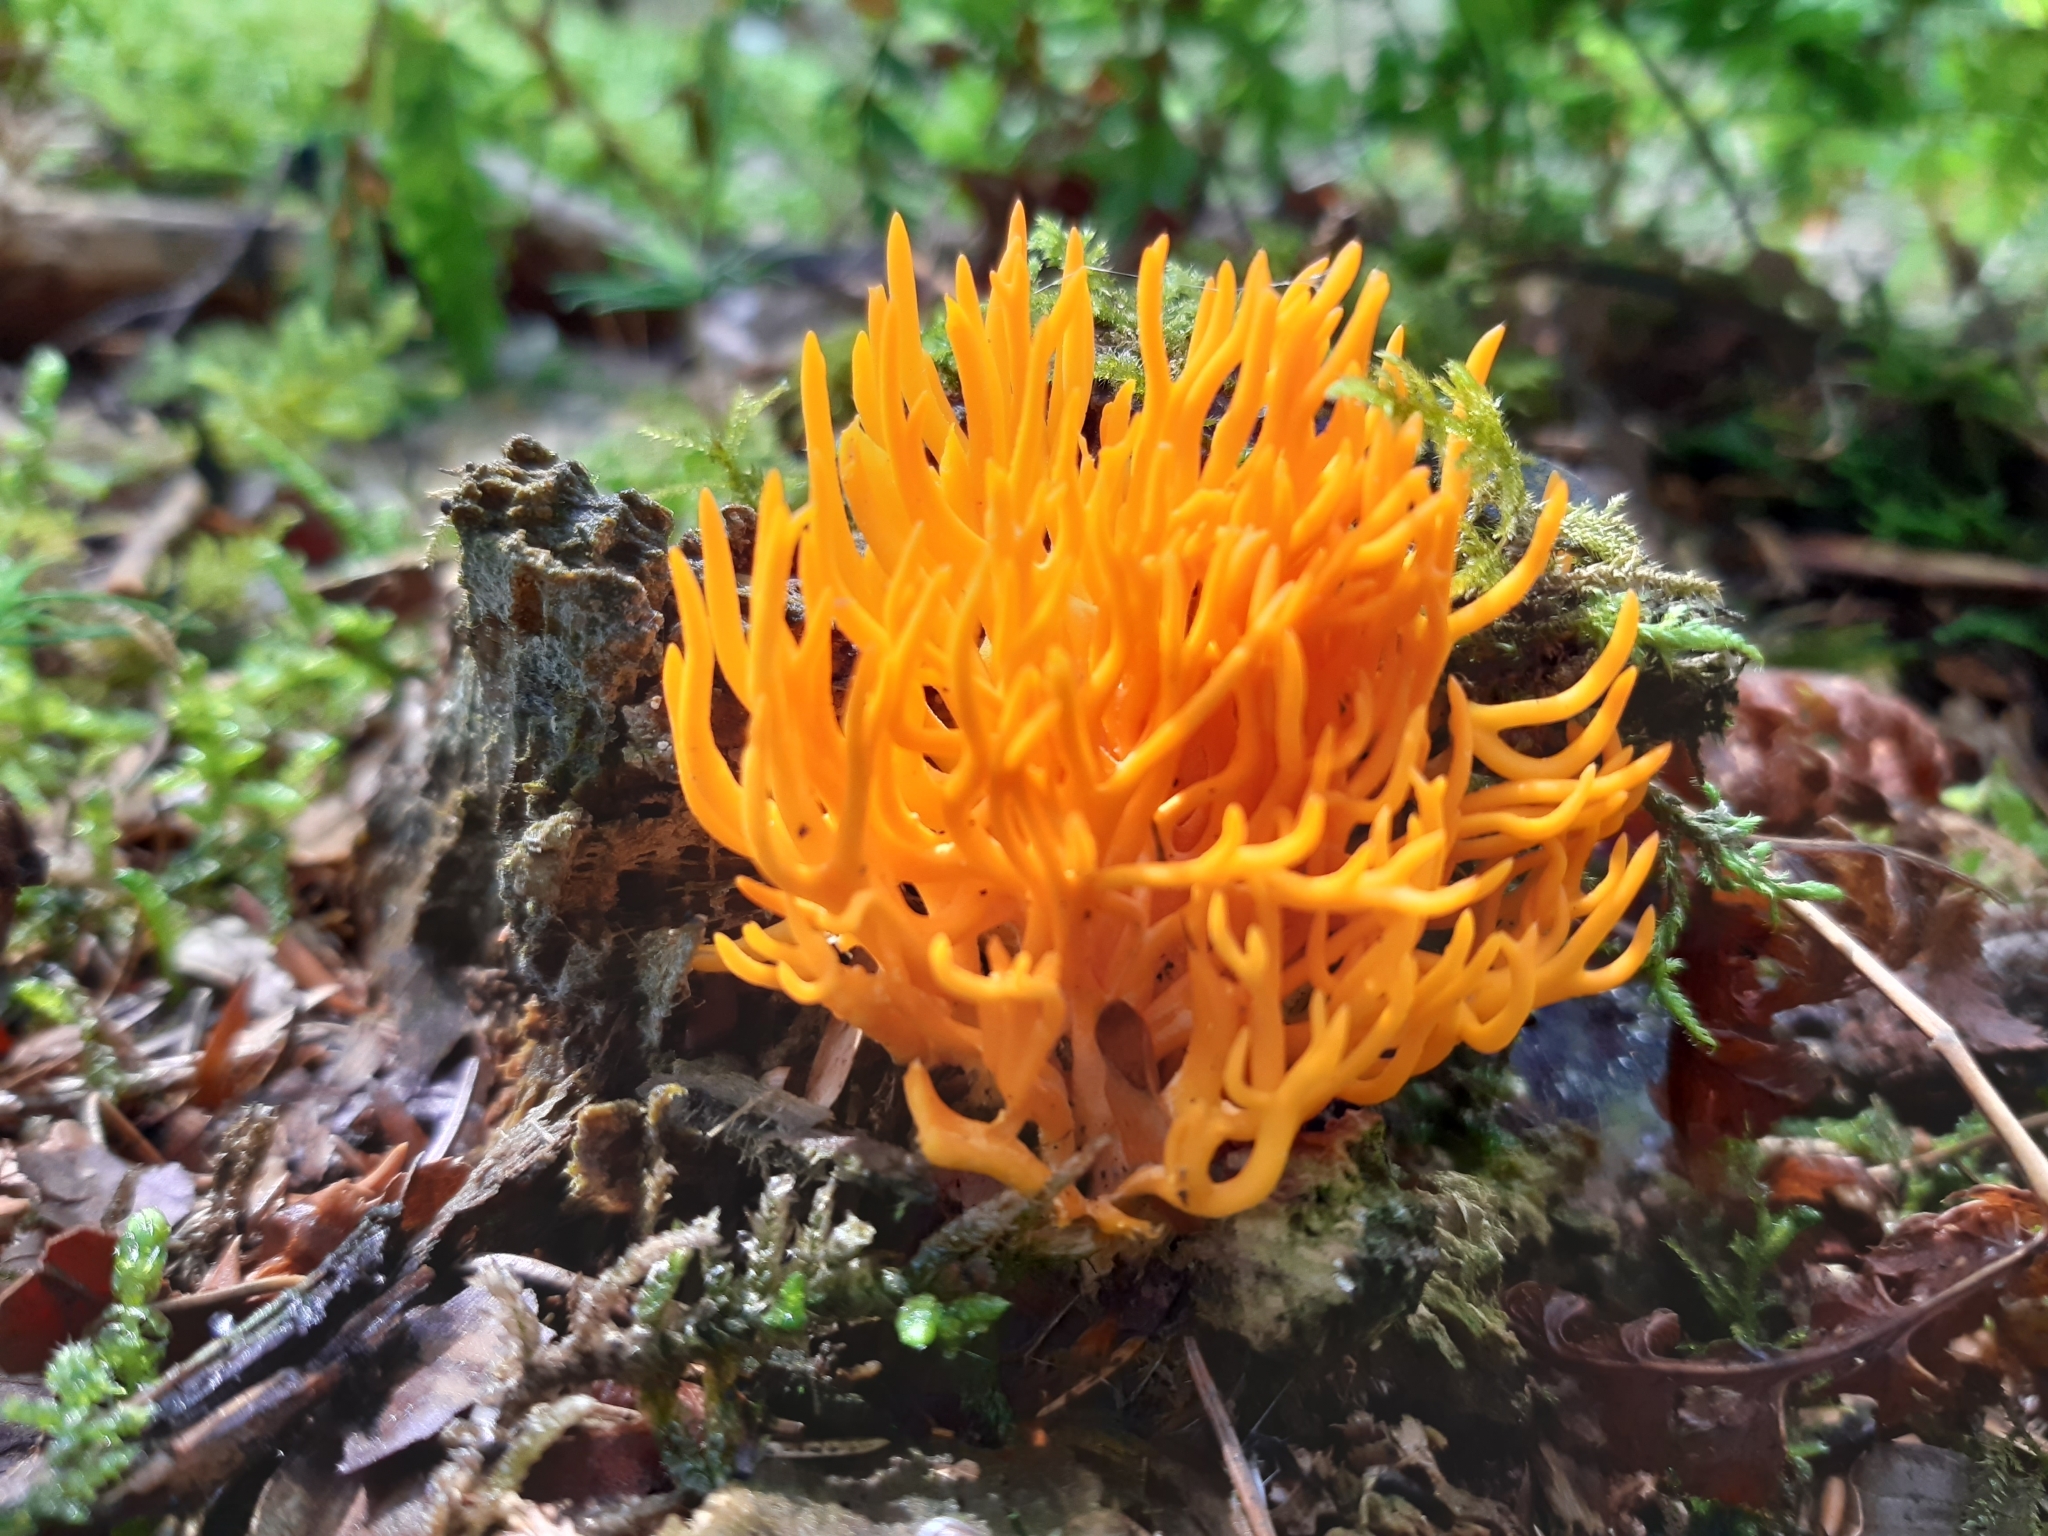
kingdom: Fungi
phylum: Basidiomycota
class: Dacrymycetes
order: Dacrymycetales
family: Dacrymycetaceae
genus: Calocera
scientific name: Calocera viscosa
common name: Yellow stagshorn
